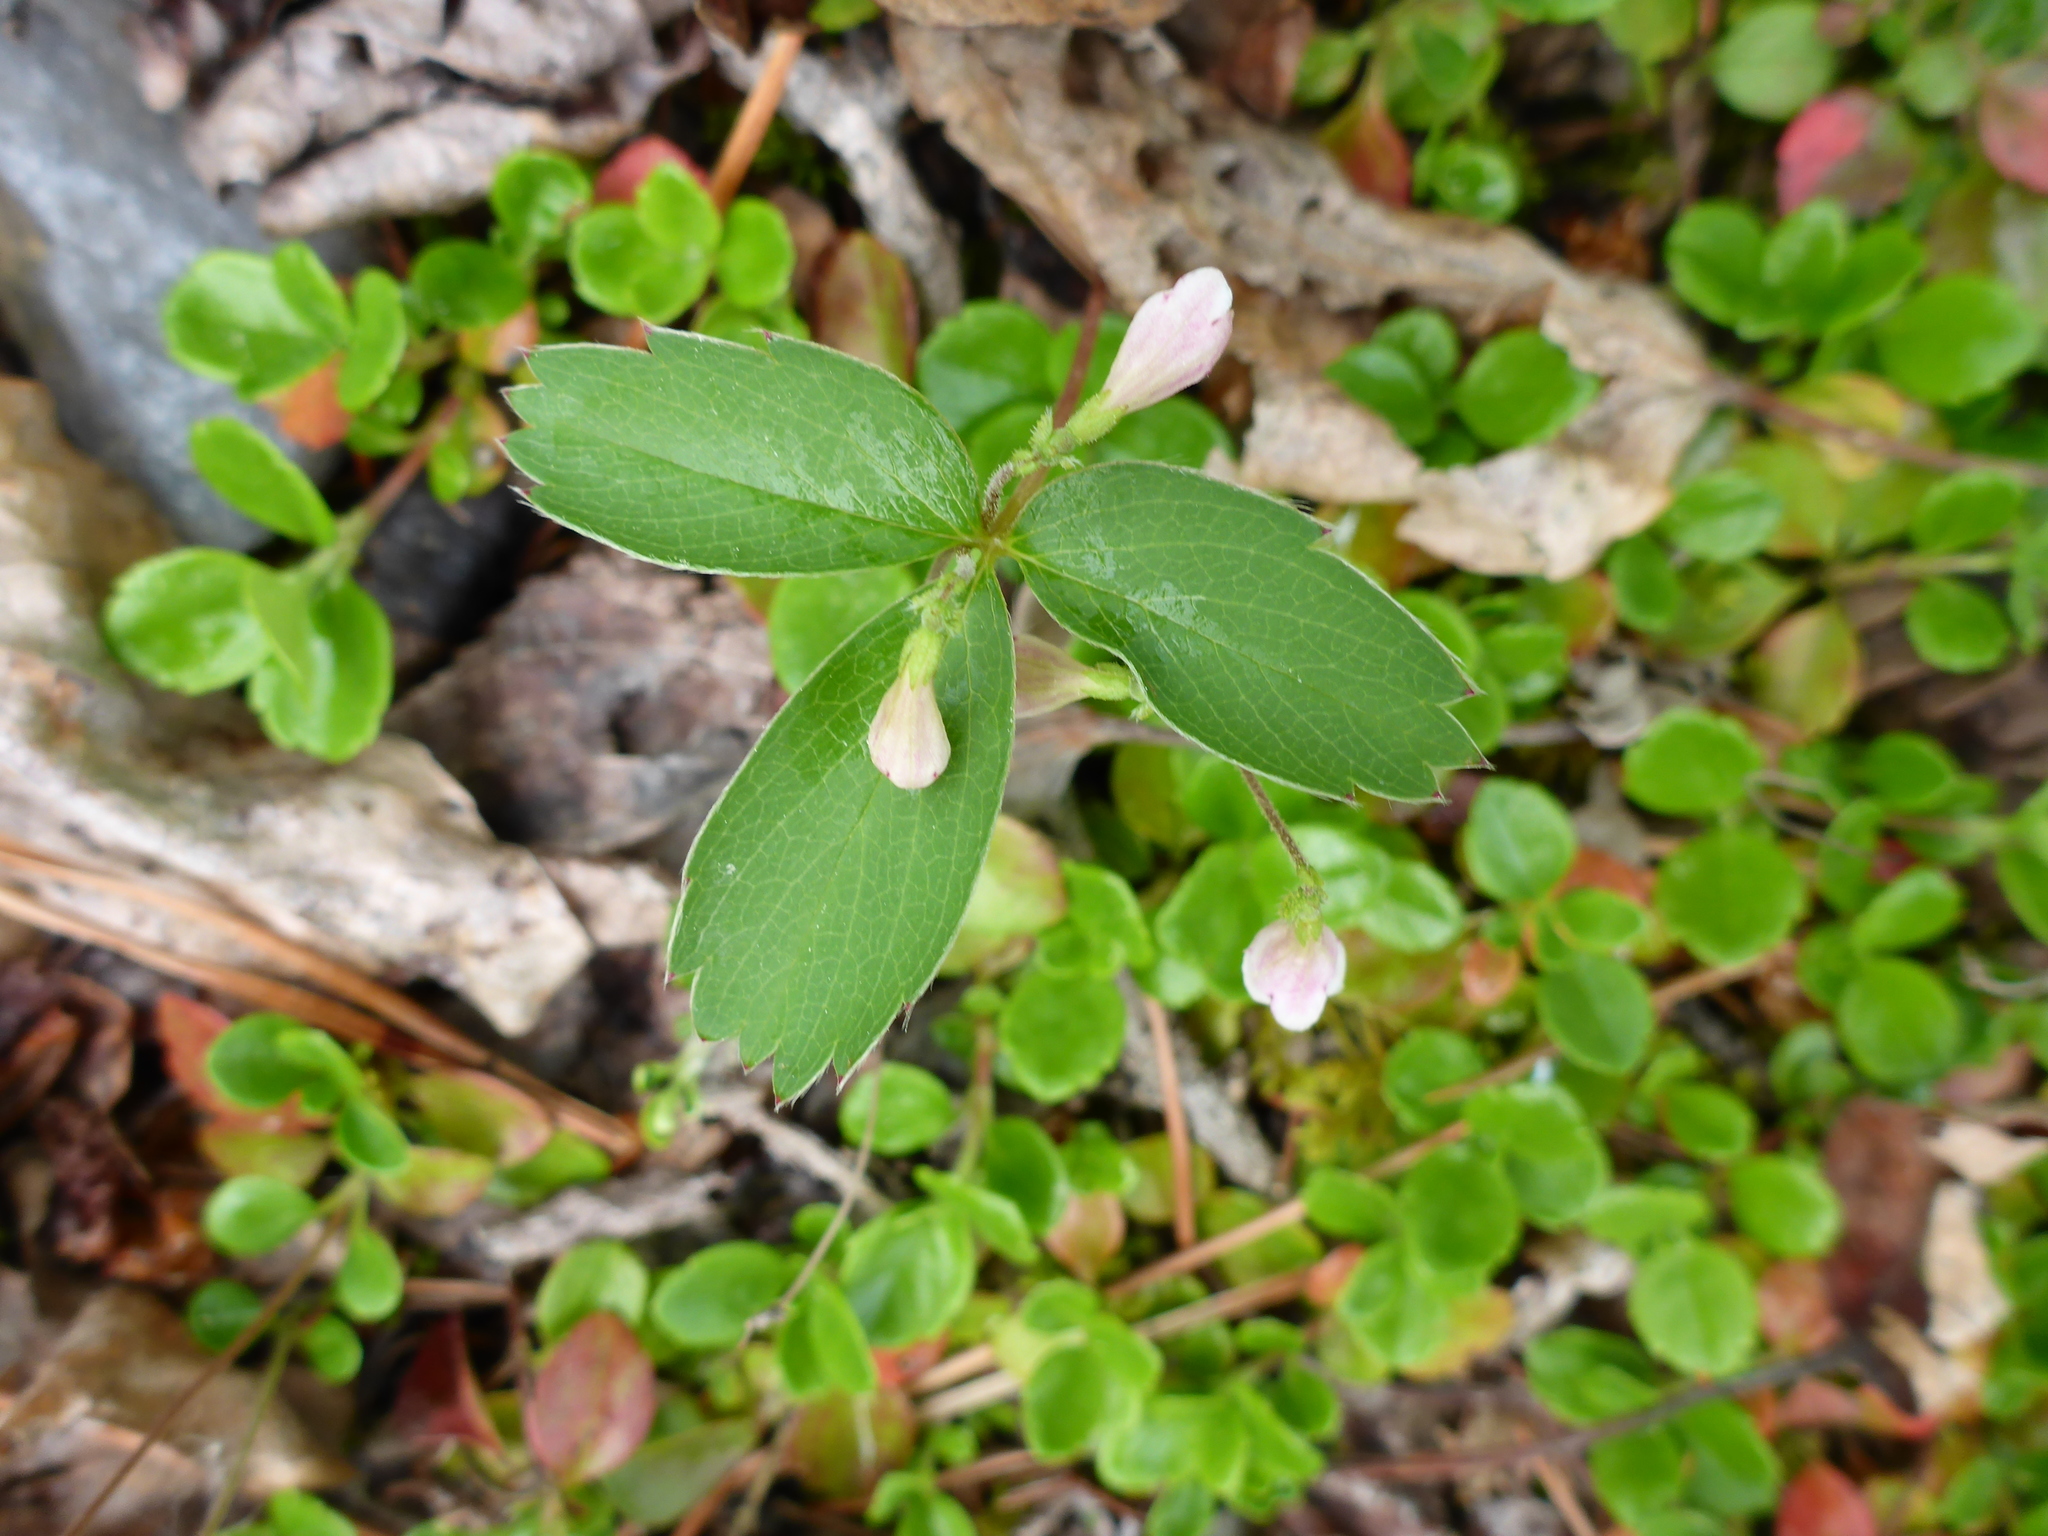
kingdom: Plantae
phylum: Tracheophyta
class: Magnoliopsida
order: Dipsacales
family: Caprifoliaceae
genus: Linnaea
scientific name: Linnaea borealis
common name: Twinflower
